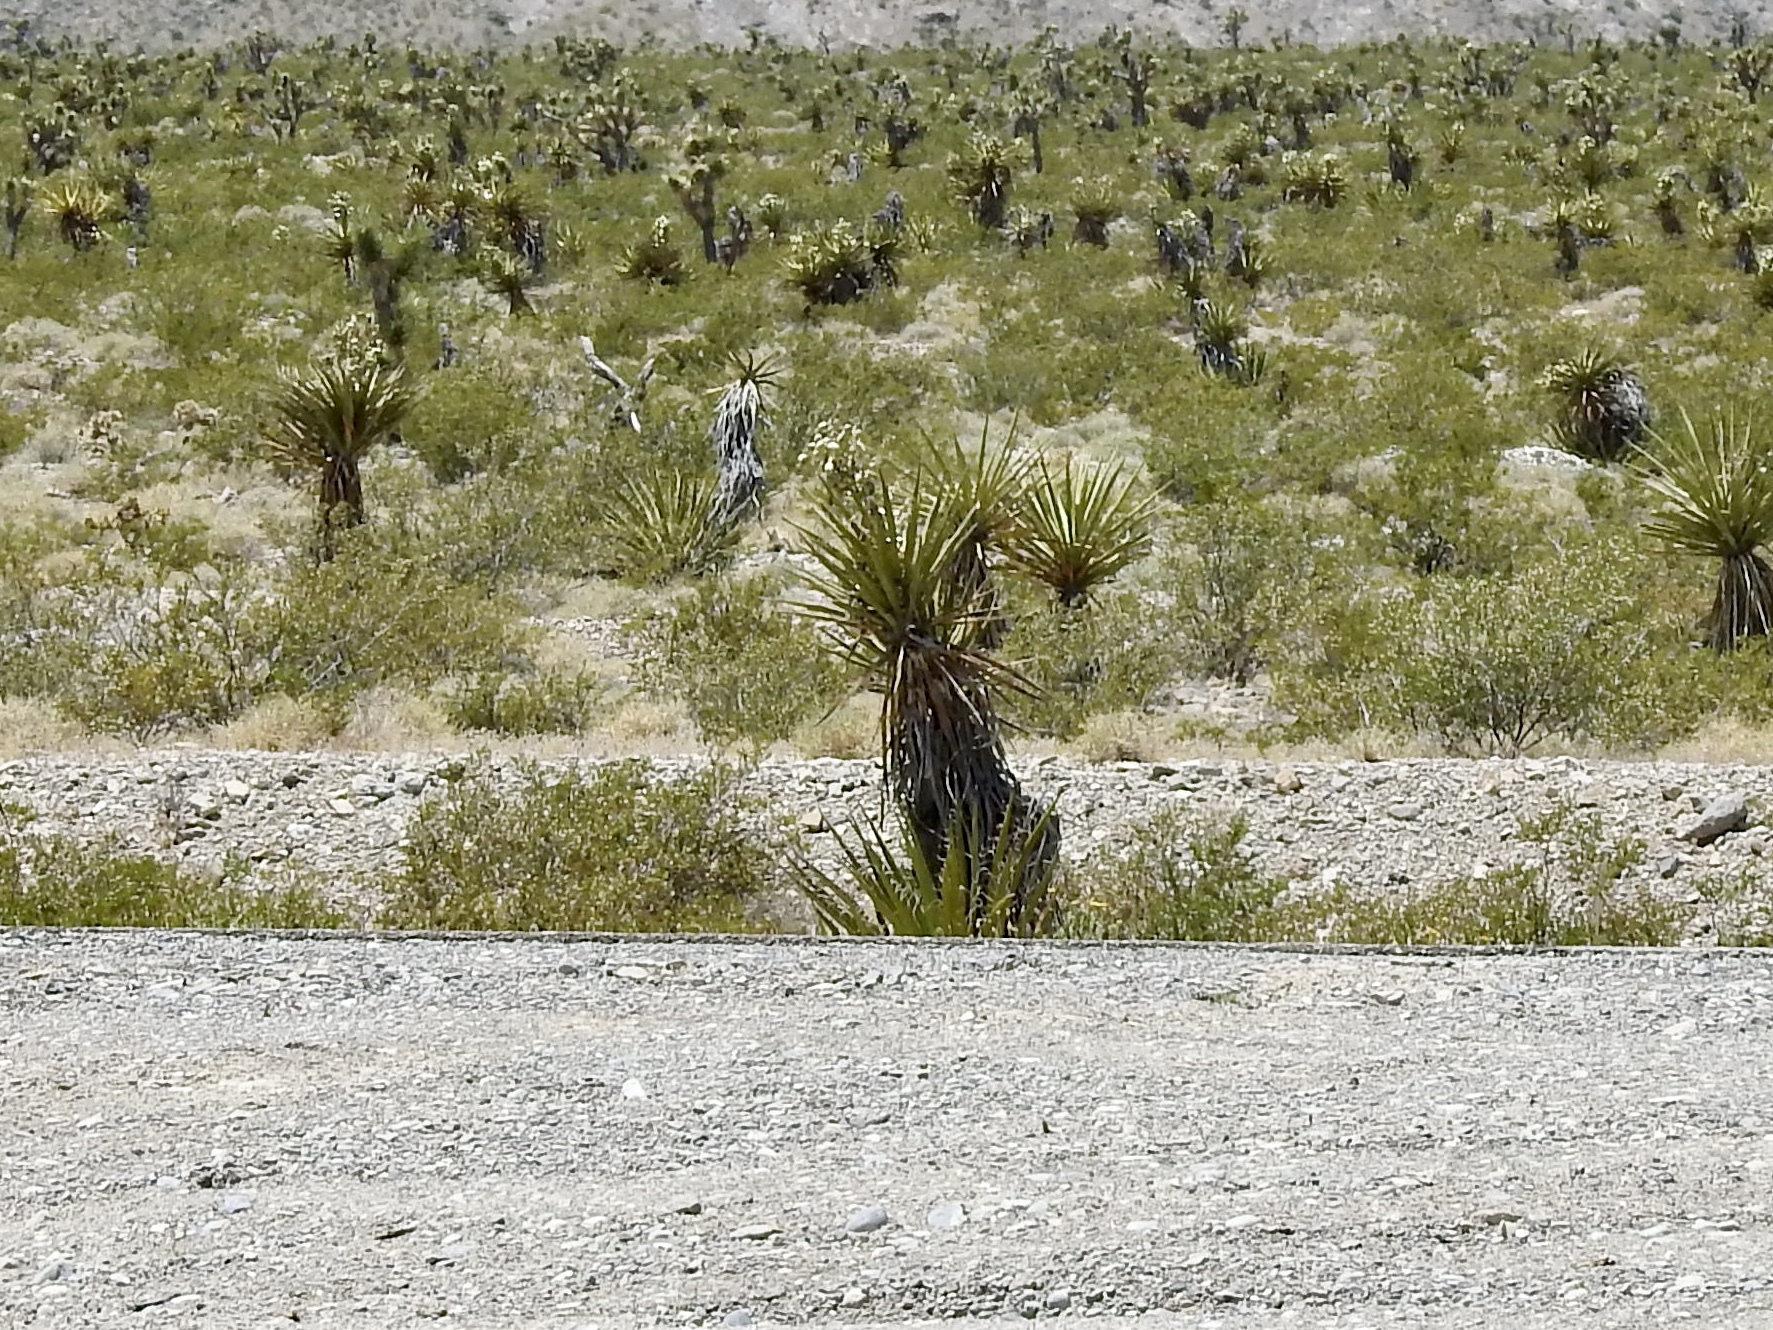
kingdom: Plantae
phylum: Tracheophyta
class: Liliopsida
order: Asparagales
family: Asparagaceae
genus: Yucca
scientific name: Yucca schidigera
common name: Mojave yucca
